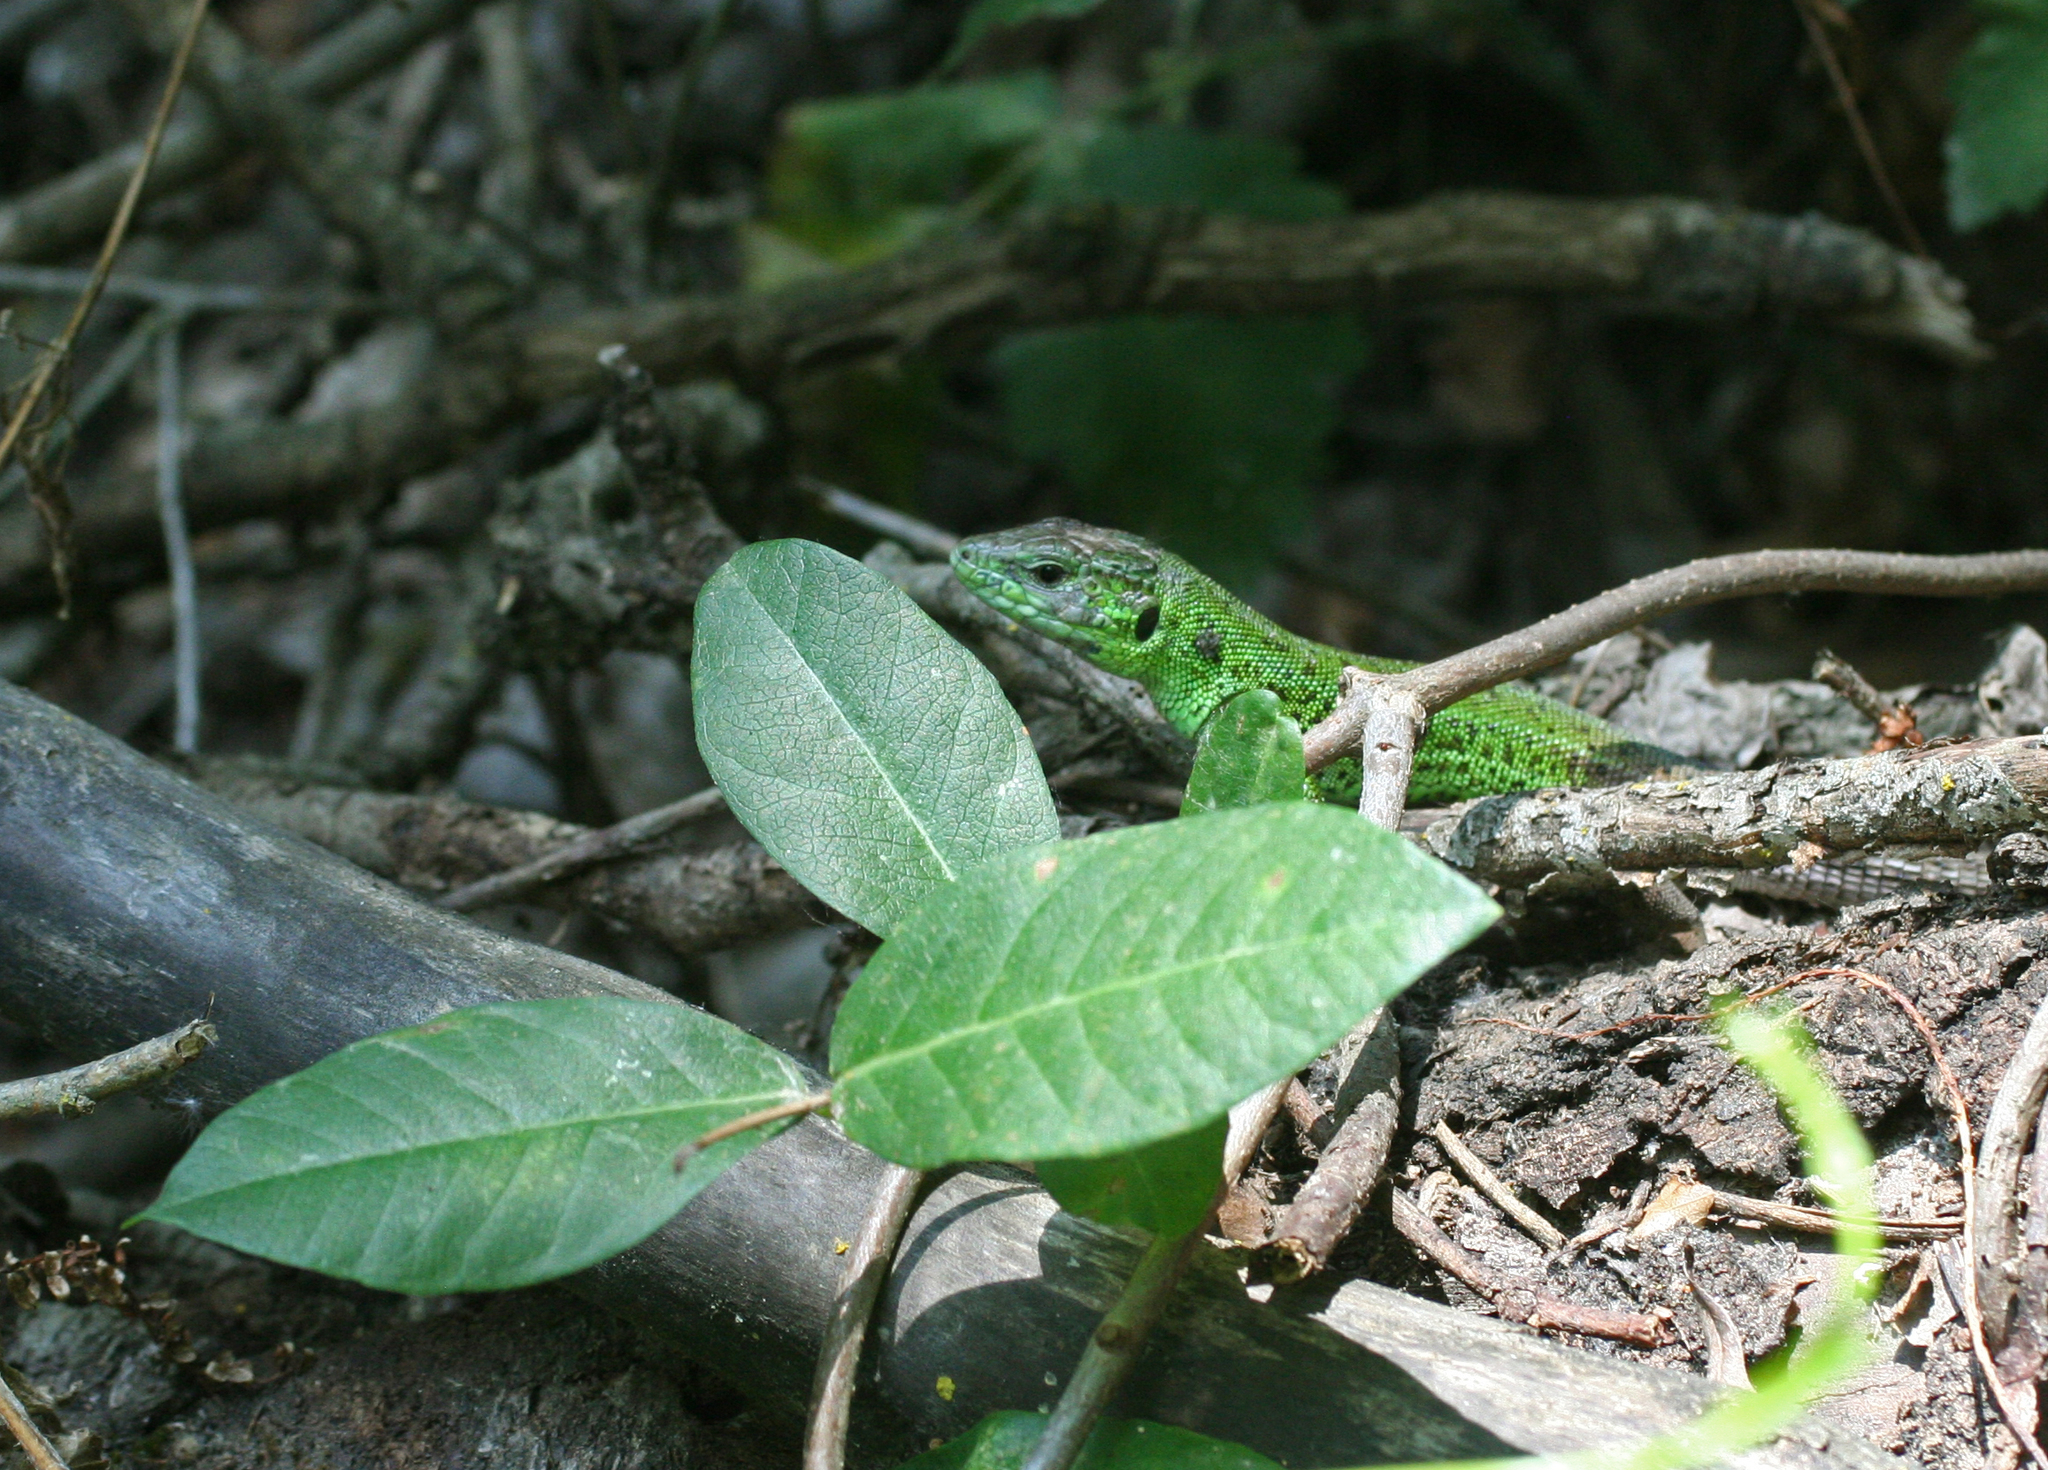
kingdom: Animalia
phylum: Chordata
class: Squamata
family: Lacertidae
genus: Lacerta
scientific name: Lacerta strigata
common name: Caspian green lizard
